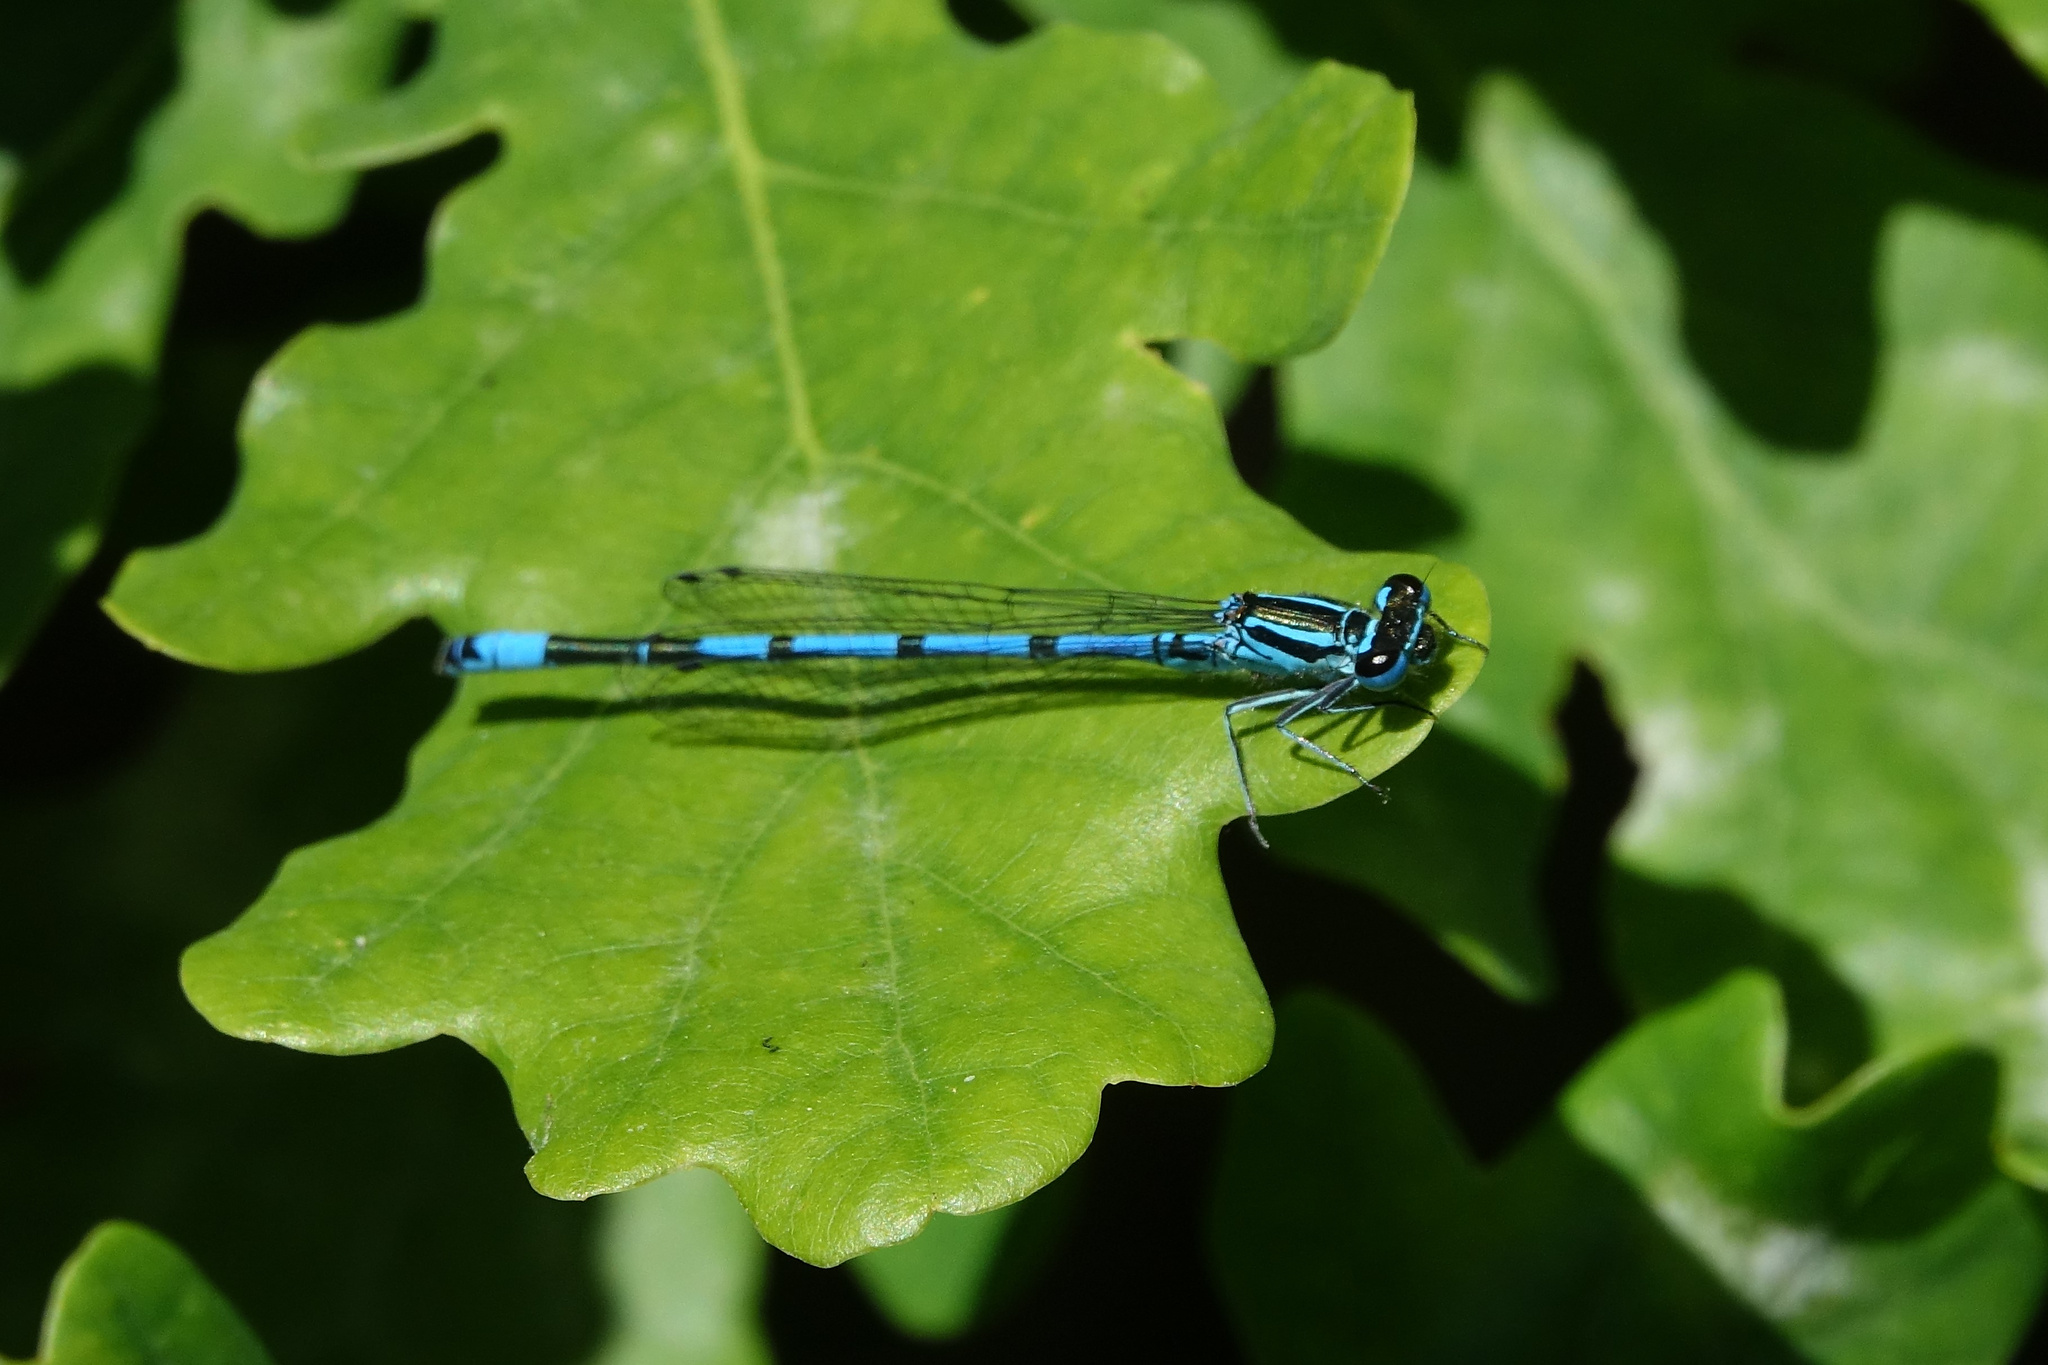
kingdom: Animalia
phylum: Arthropoda
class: Insecta
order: Odonata
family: Coenagrionidae
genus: Coenagrion
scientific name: Coenagrion puella
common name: Azure damselfly
